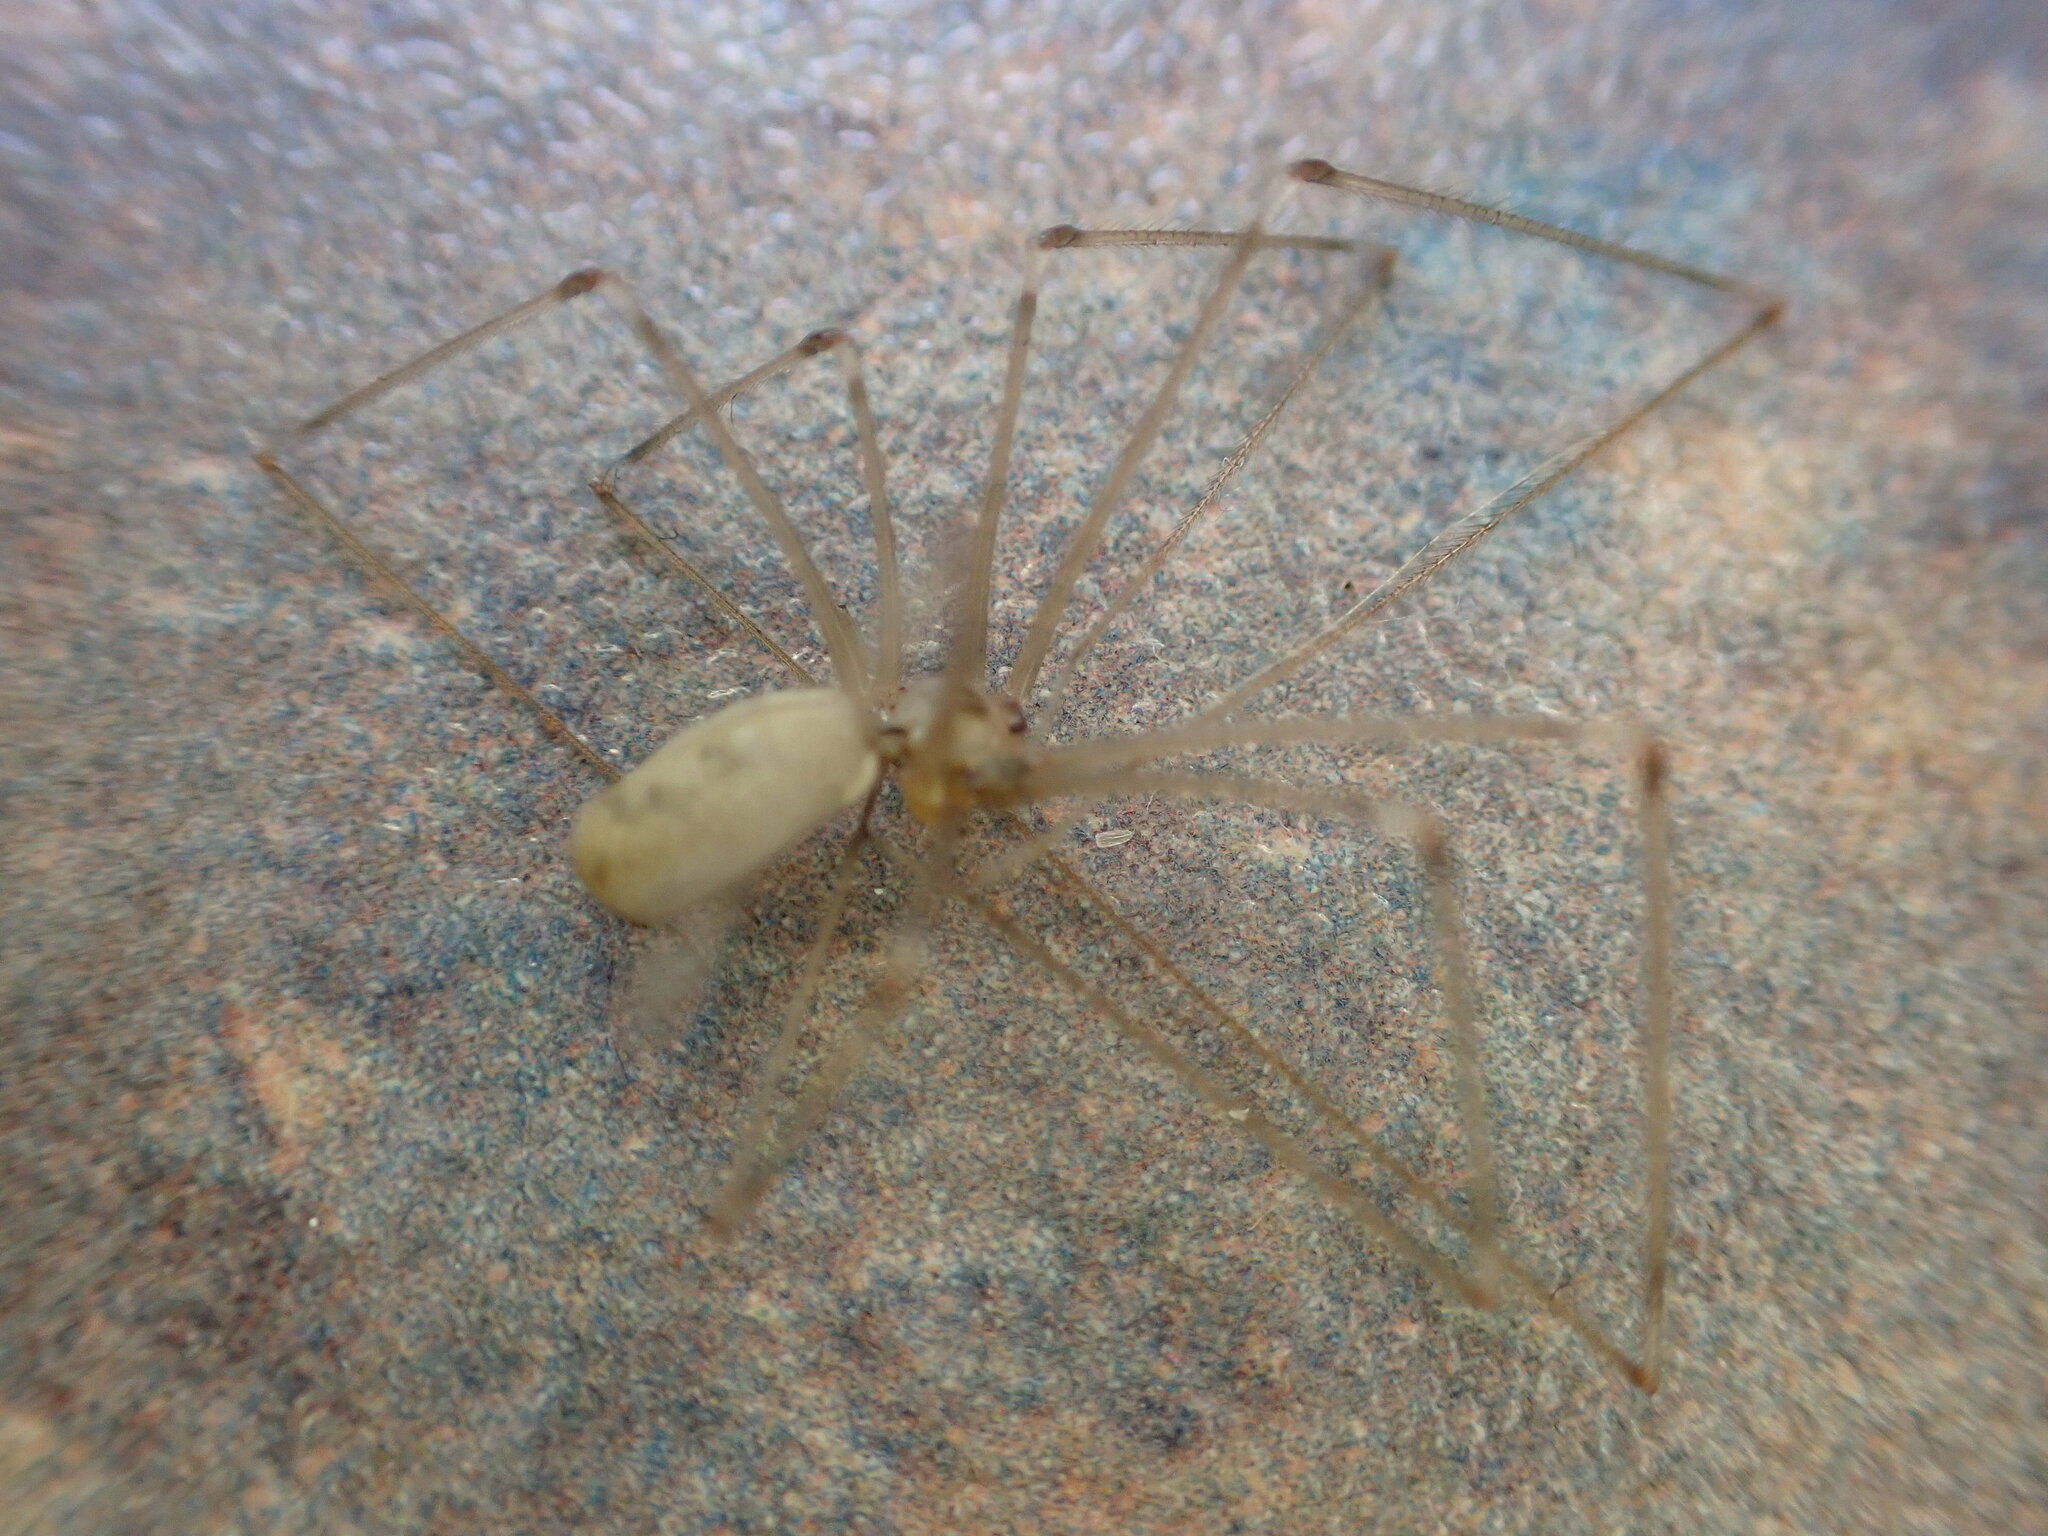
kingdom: Animalia
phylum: Arthropoda
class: Arachnida
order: Araneae
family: Pholcidae
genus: Pholcus
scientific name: Pholcus phalangioides
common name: Longbodied cellar spider
